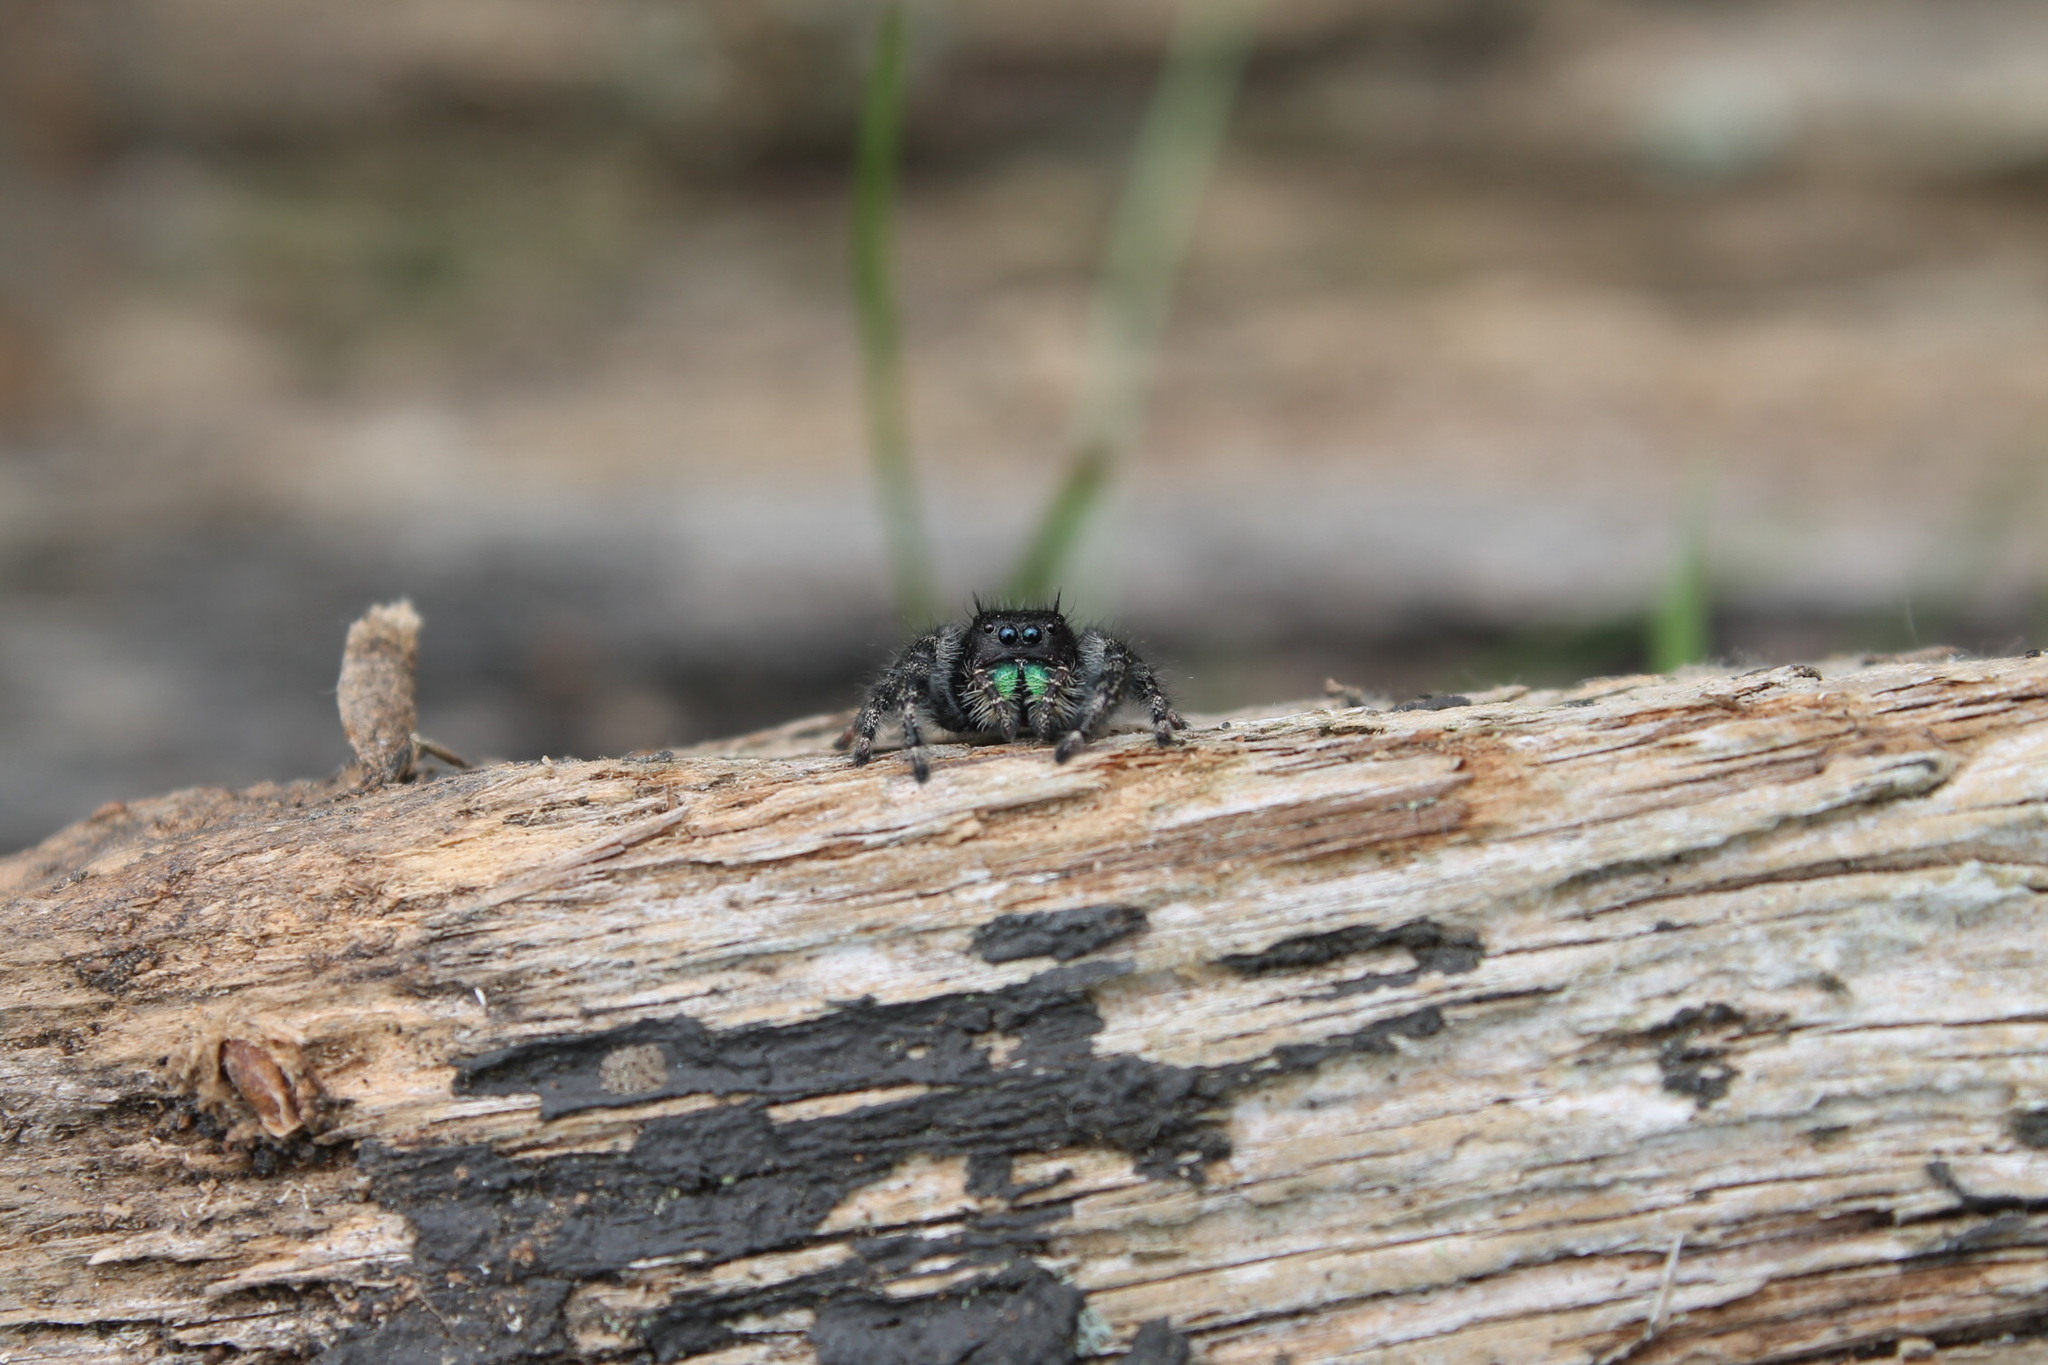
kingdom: Animalia
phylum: Arthropoda
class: Arachnida
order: Araneae
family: Salticidae
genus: Phidippus
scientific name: Phidippus audax
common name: Bold jumper
